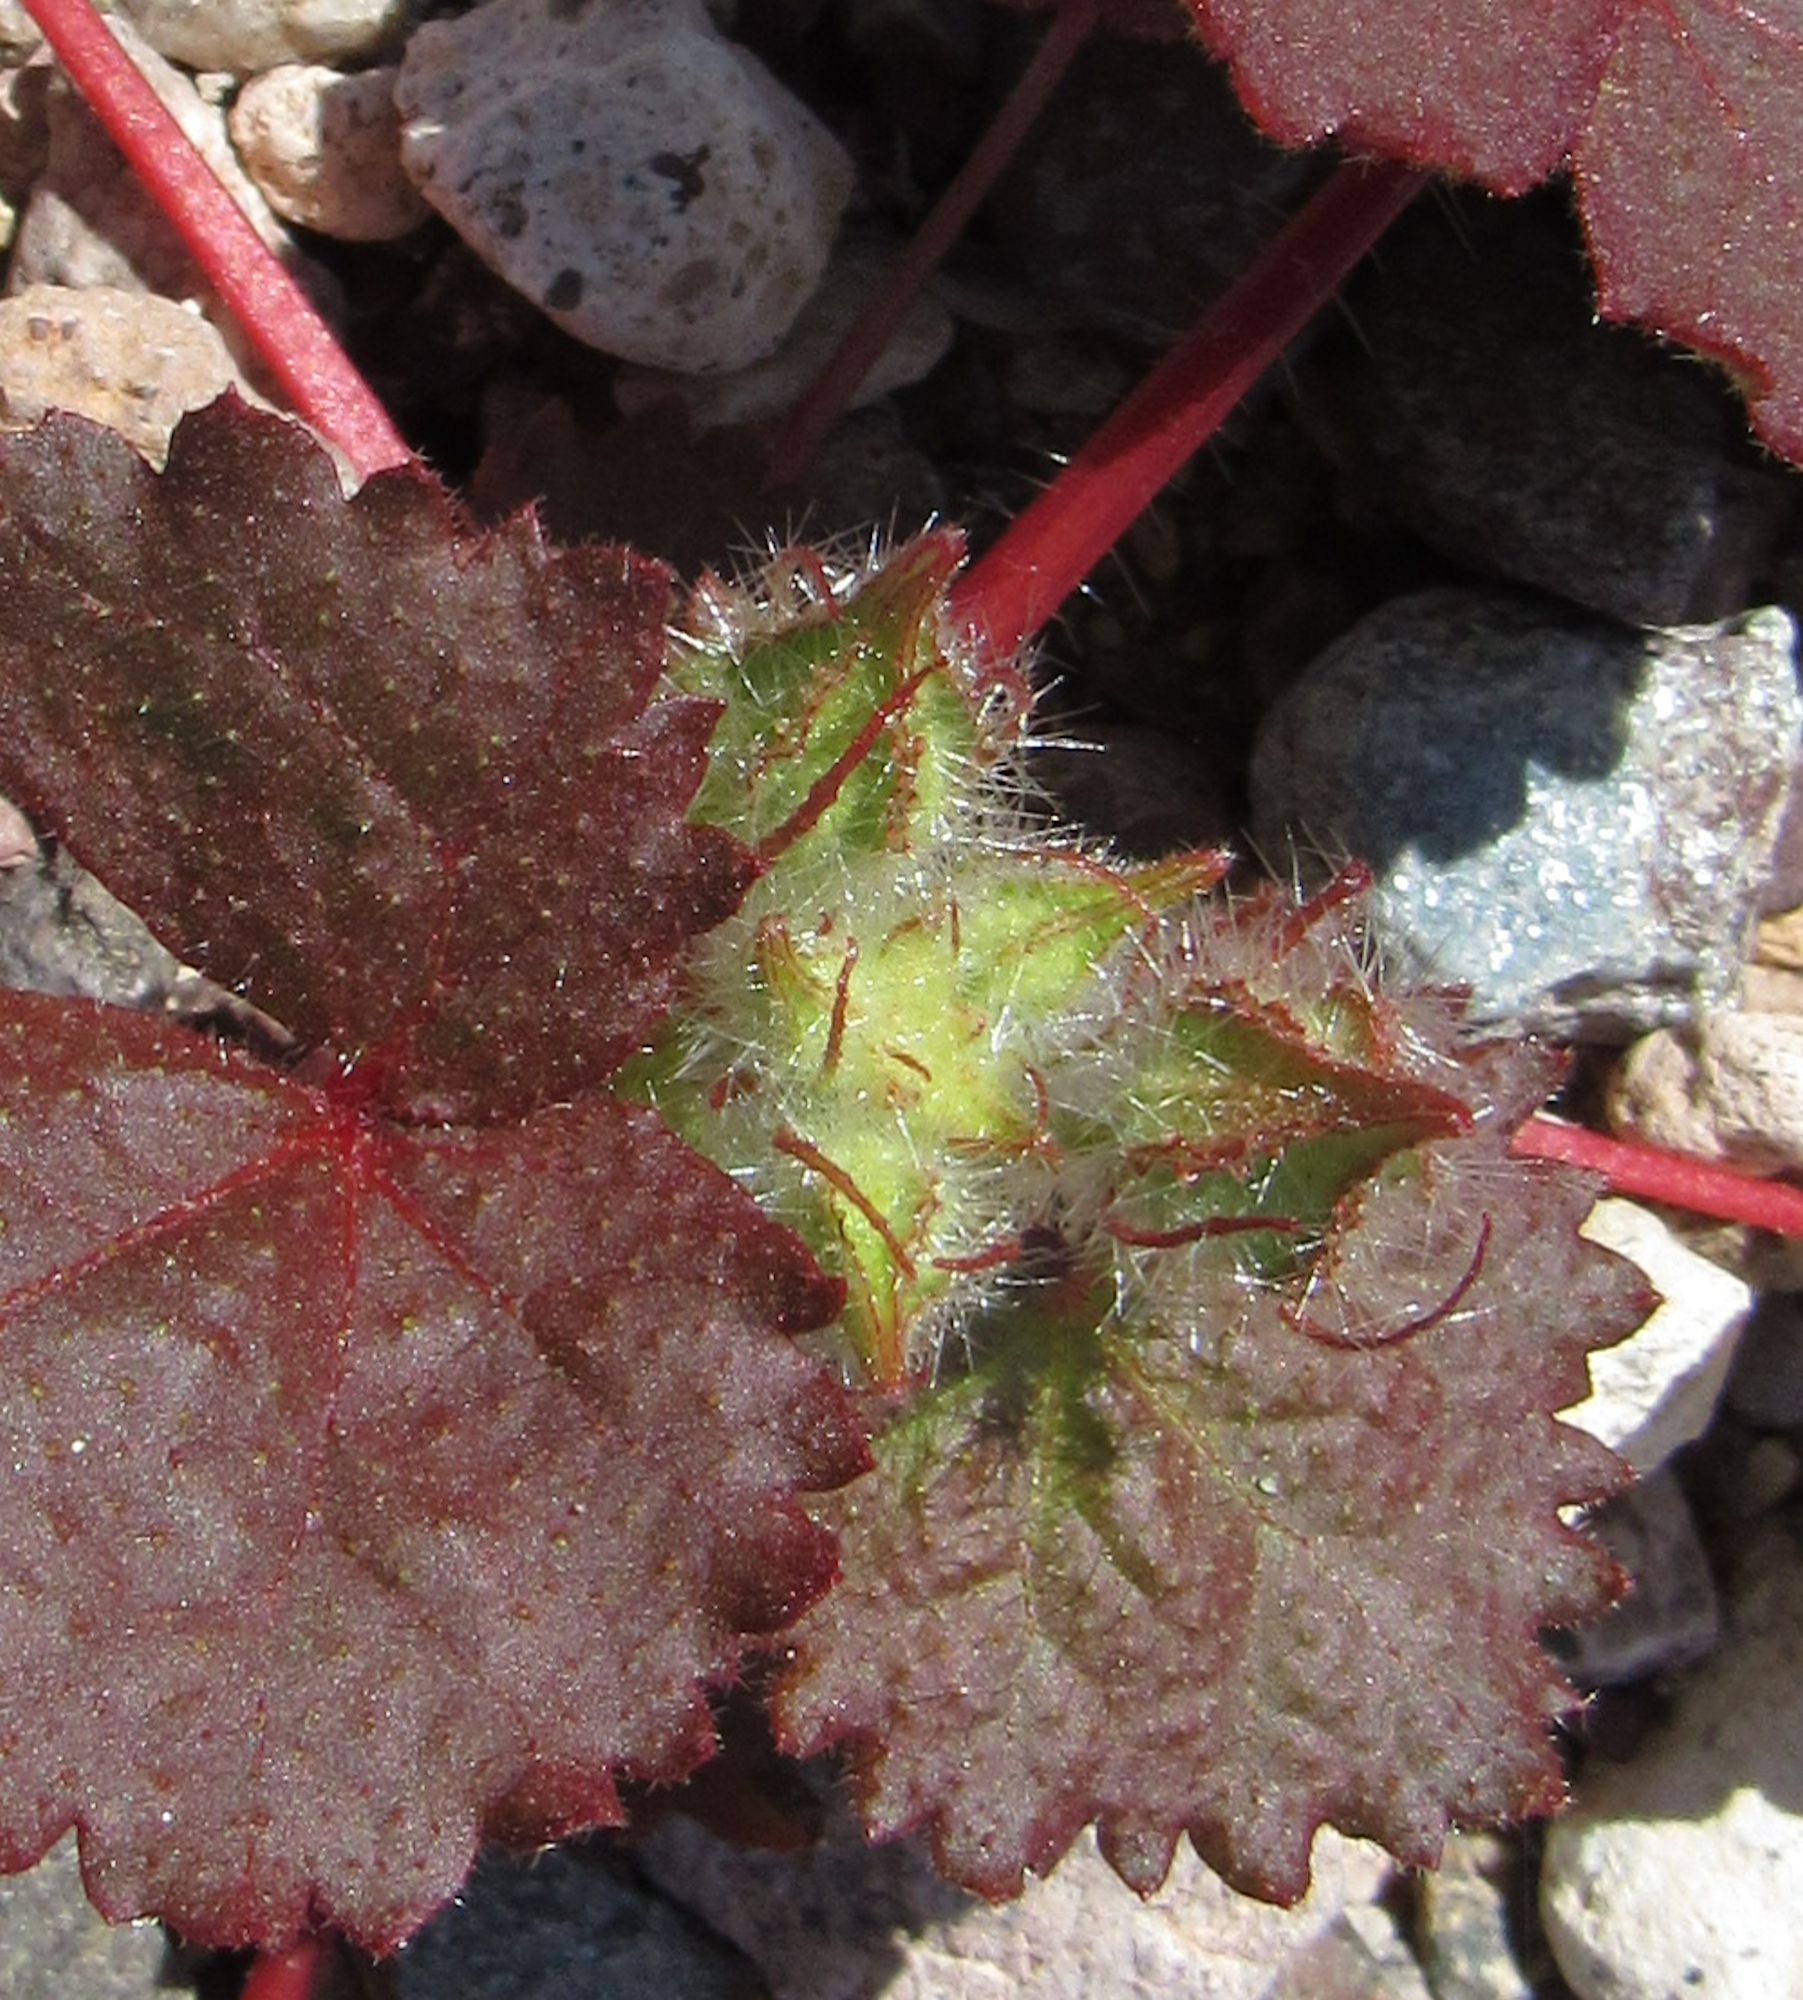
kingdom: Plantae
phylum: Tracheophyta
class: Magnoliopsida
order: Malvales
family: Malvaceae
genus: Eremalche
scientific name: Eremalche rotundifolia
